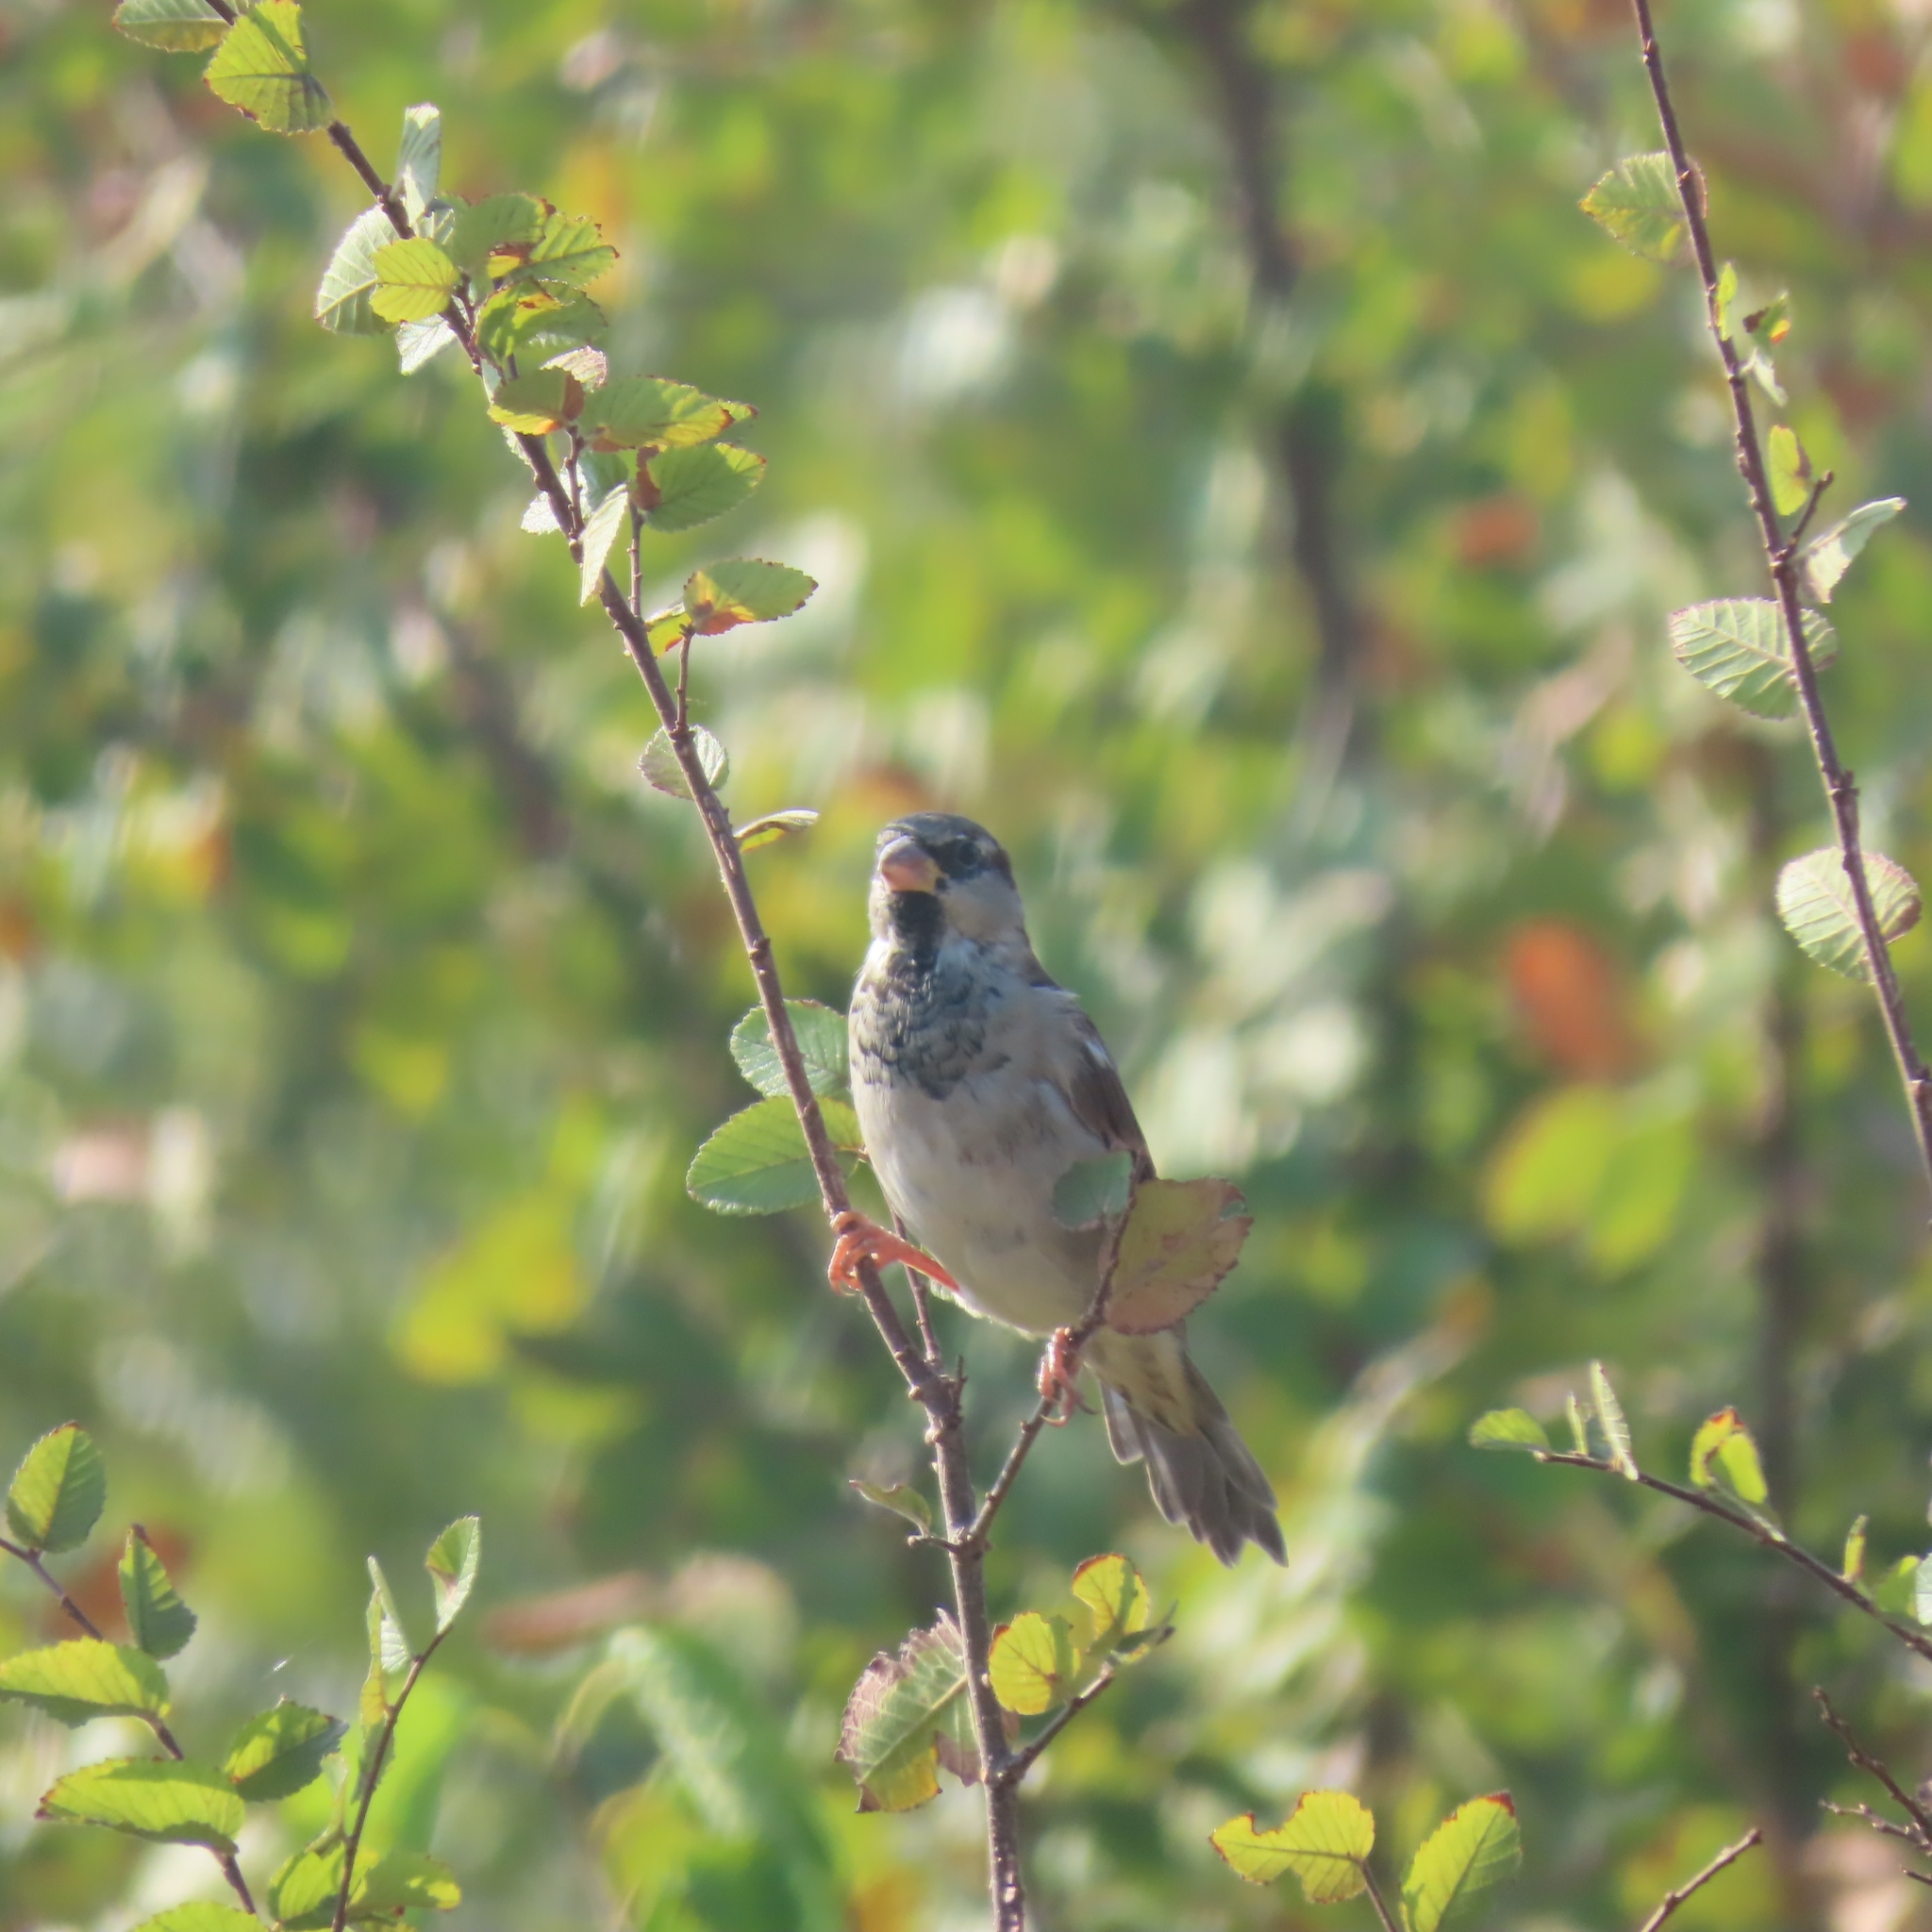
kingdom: Animalia
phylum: Chordata
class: Aves
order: Passeriformes
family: Passeridae
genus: Passer
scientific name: Passer domesticus
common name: House sparrow
